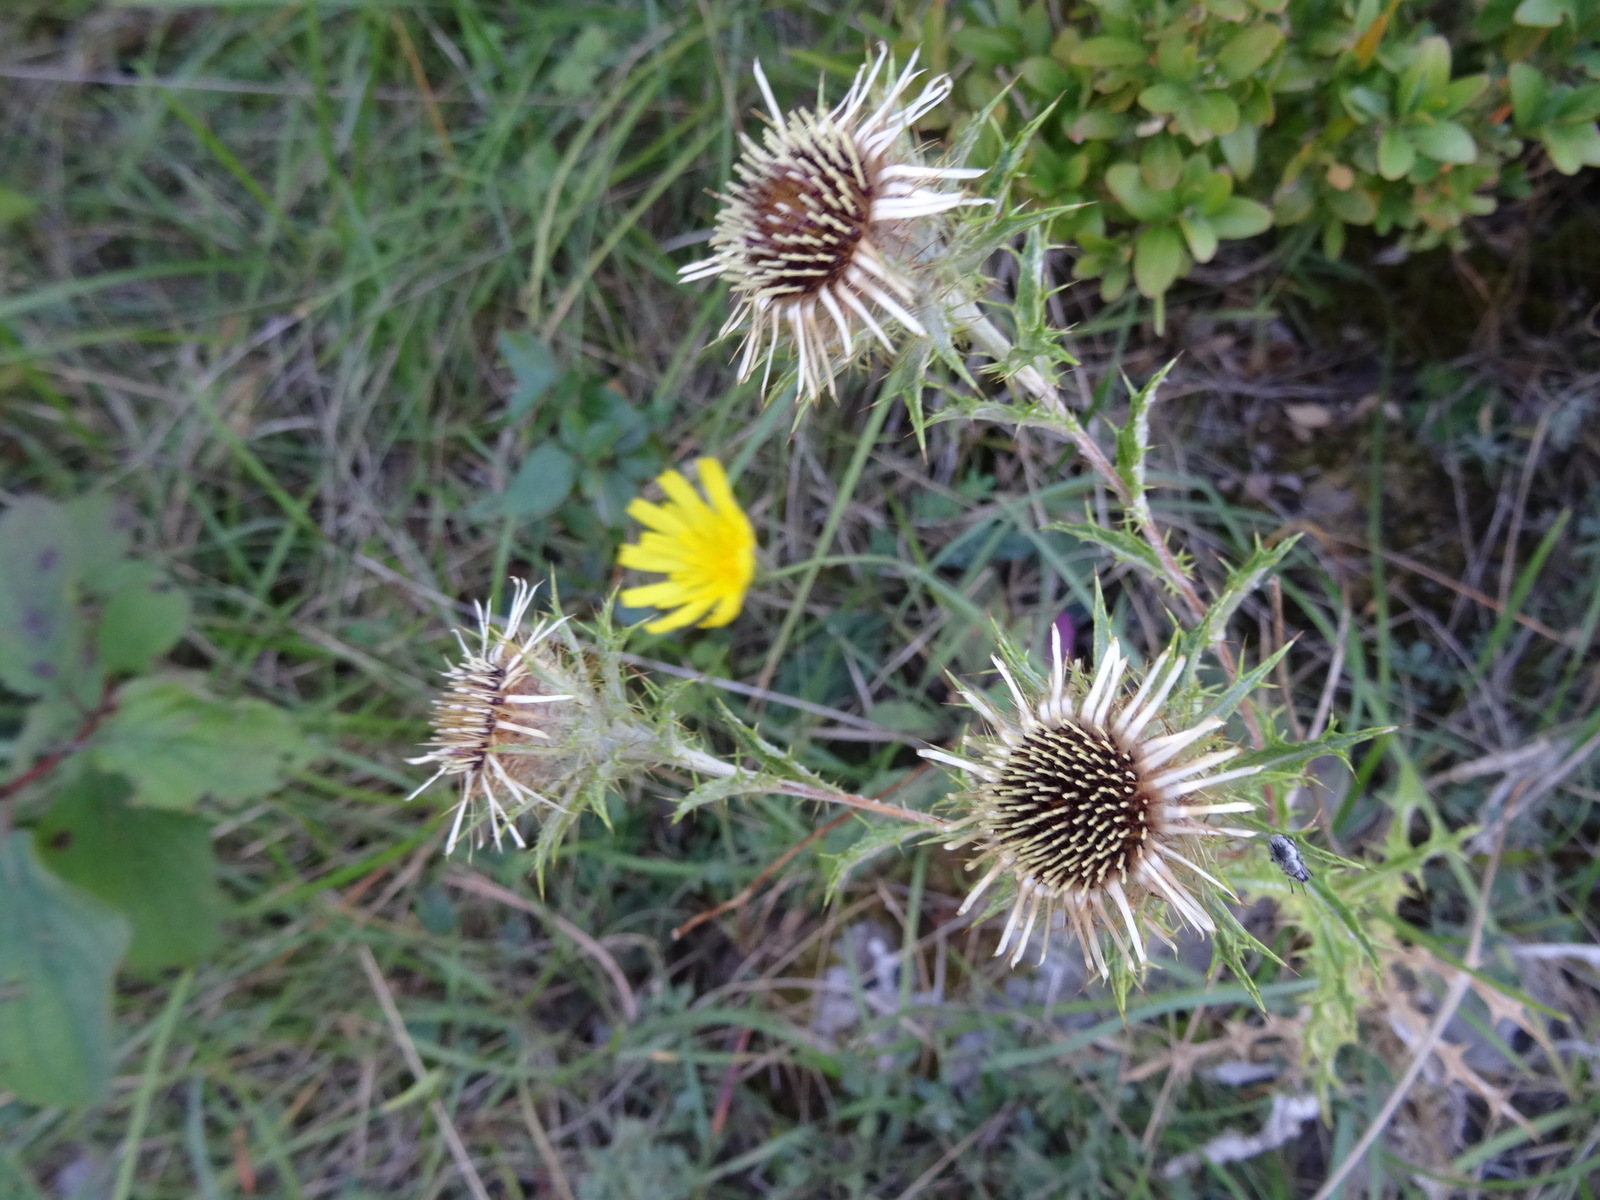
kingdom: Plantae
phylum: Tracheophyta
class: Magnoliopsida
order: Asterales
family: Asteraceae
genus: Carlina
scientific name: Carlina vulgaris
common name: Carline thistle
